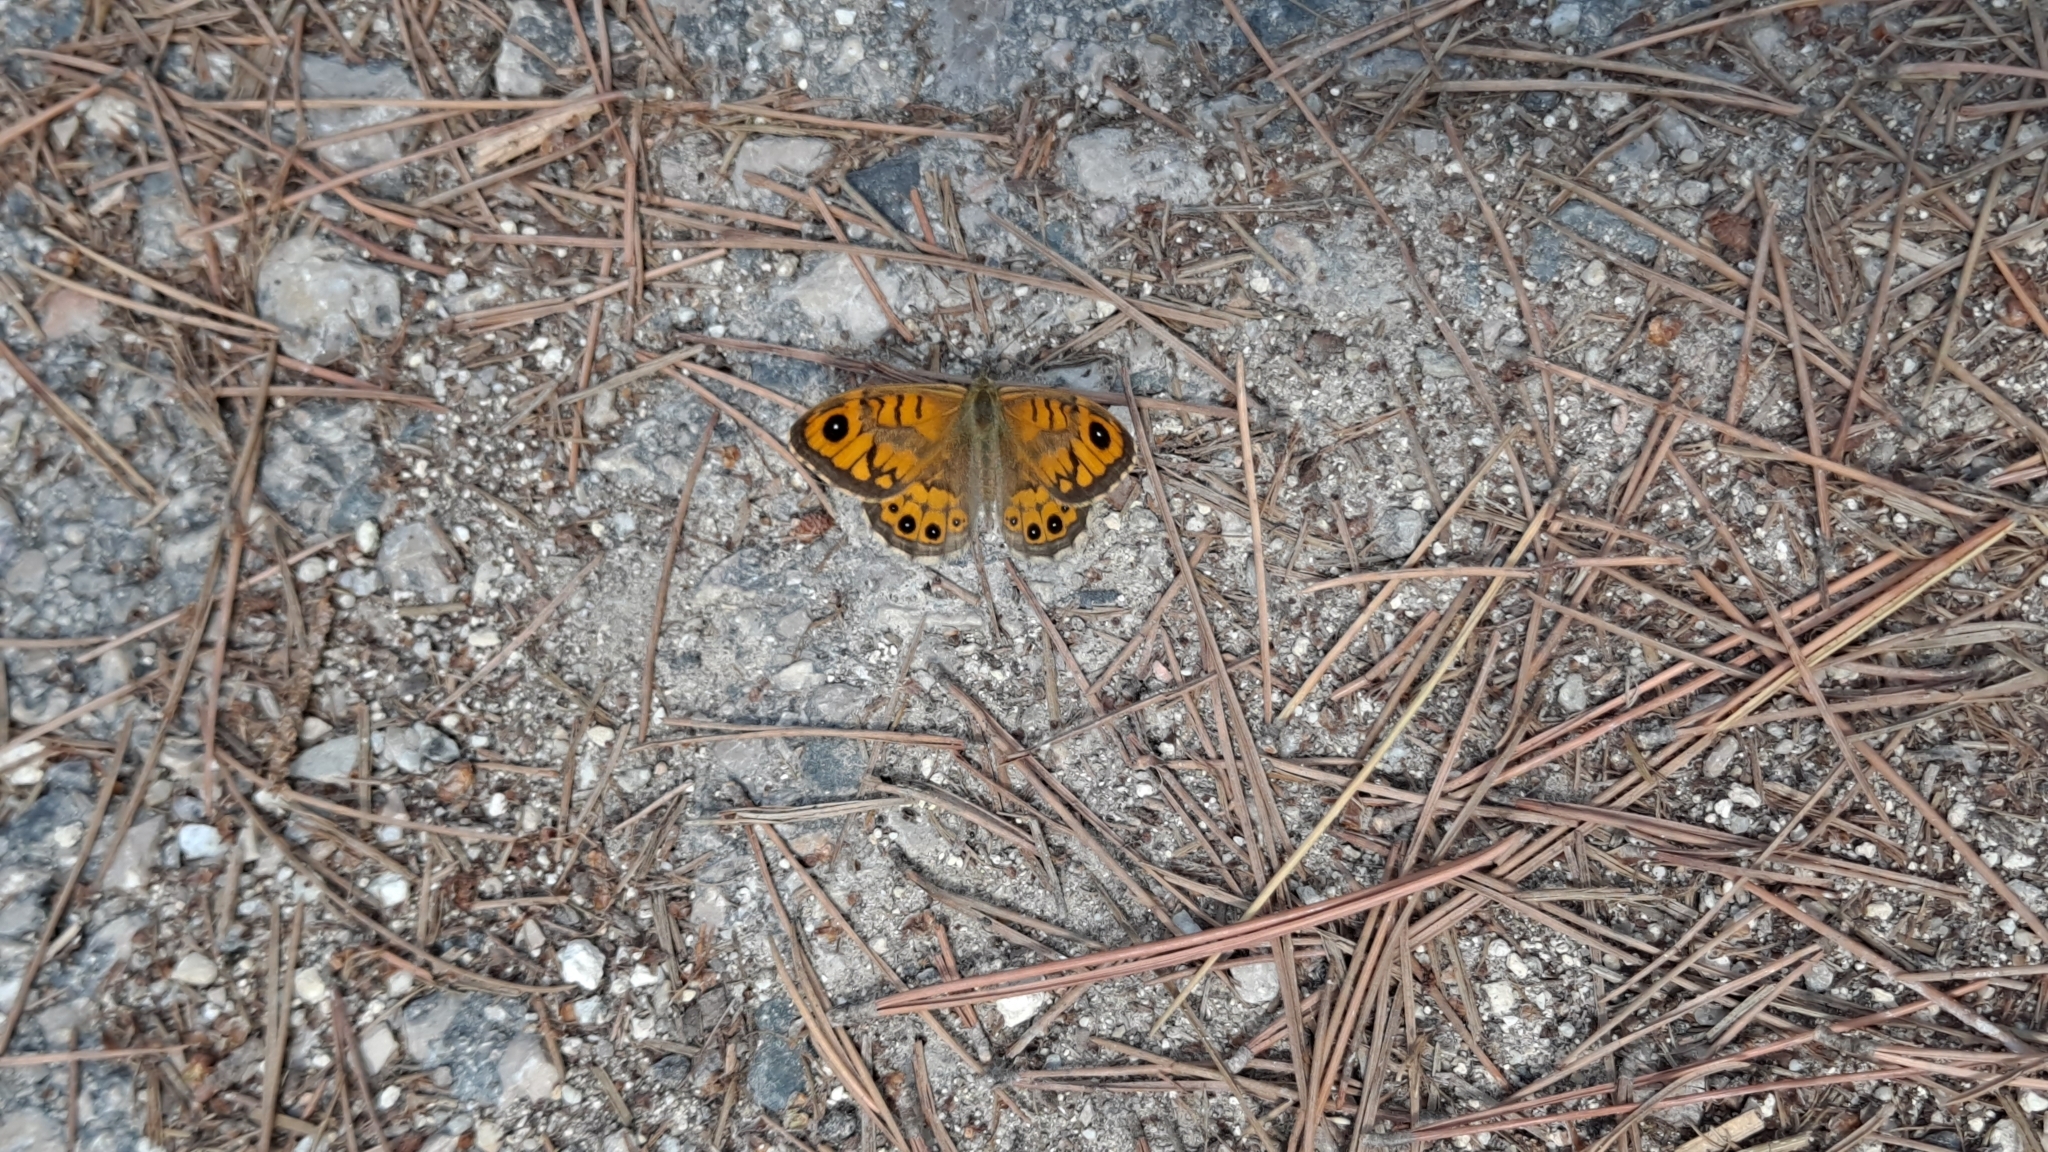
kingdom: Animalia
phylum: Arthropoda
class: Insecta
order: Lepidoptera
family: Nymphalidae
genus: Pararge
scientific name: Pararge Lasiommata megera
